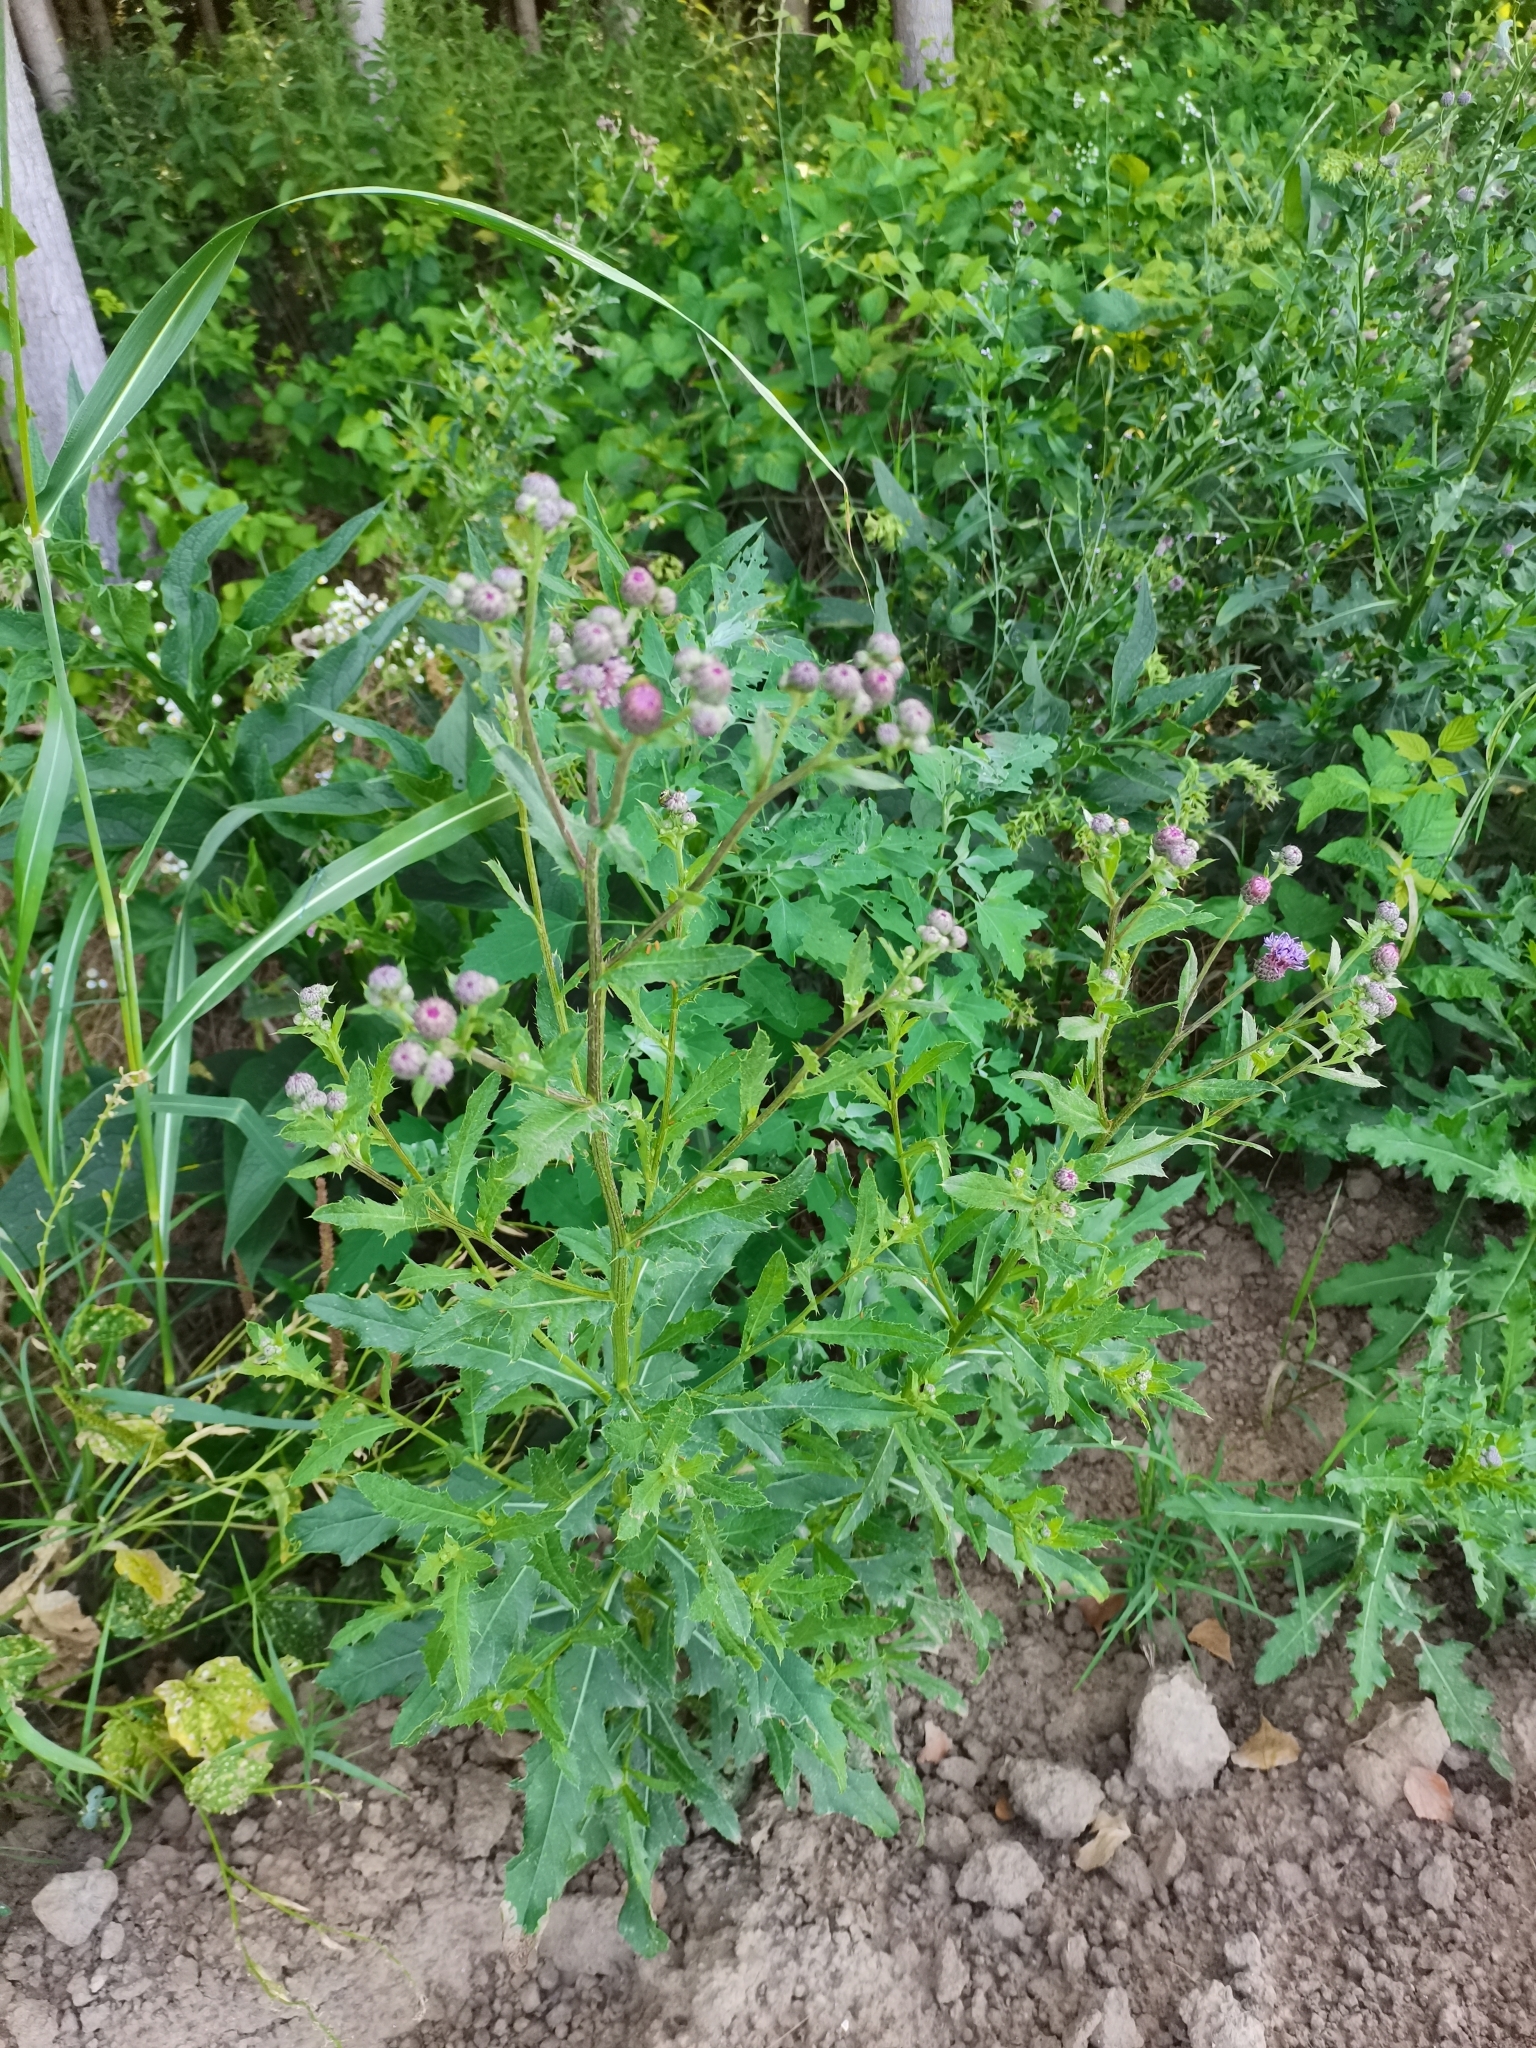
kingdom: Plantae
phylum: Tracheophyta
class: Magnoliopsida
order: Asterales
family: Asteraceae
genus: Cirsium
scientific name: Cirsium arvense
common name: Creeping thistle
